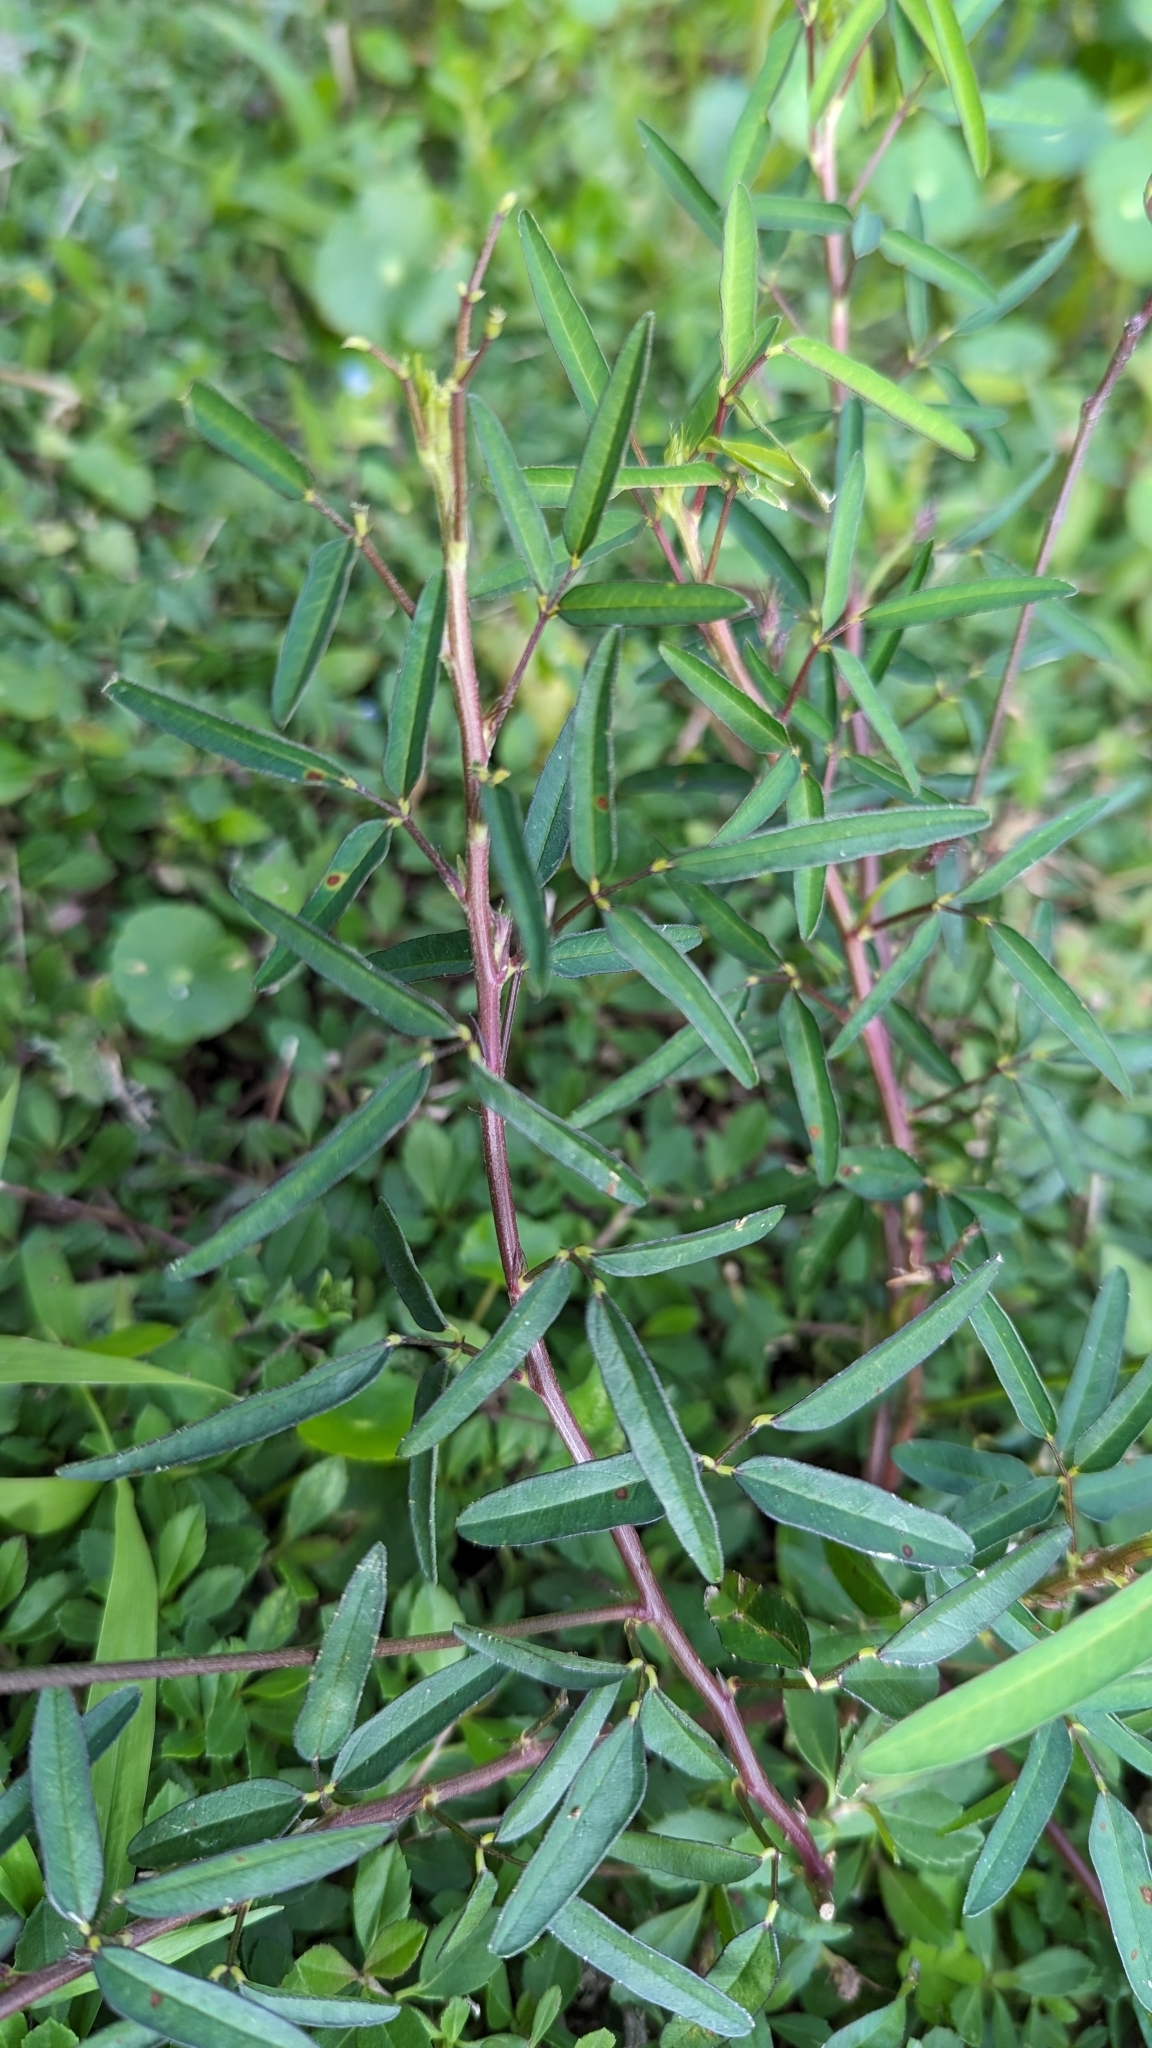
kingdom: Plantae
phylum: Tracheophyta
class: Magnoliopsida
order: Fabales
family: Fabaceae
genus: Macroptilium
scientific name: Macroptilium lathyroides
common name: Wild bushbean
